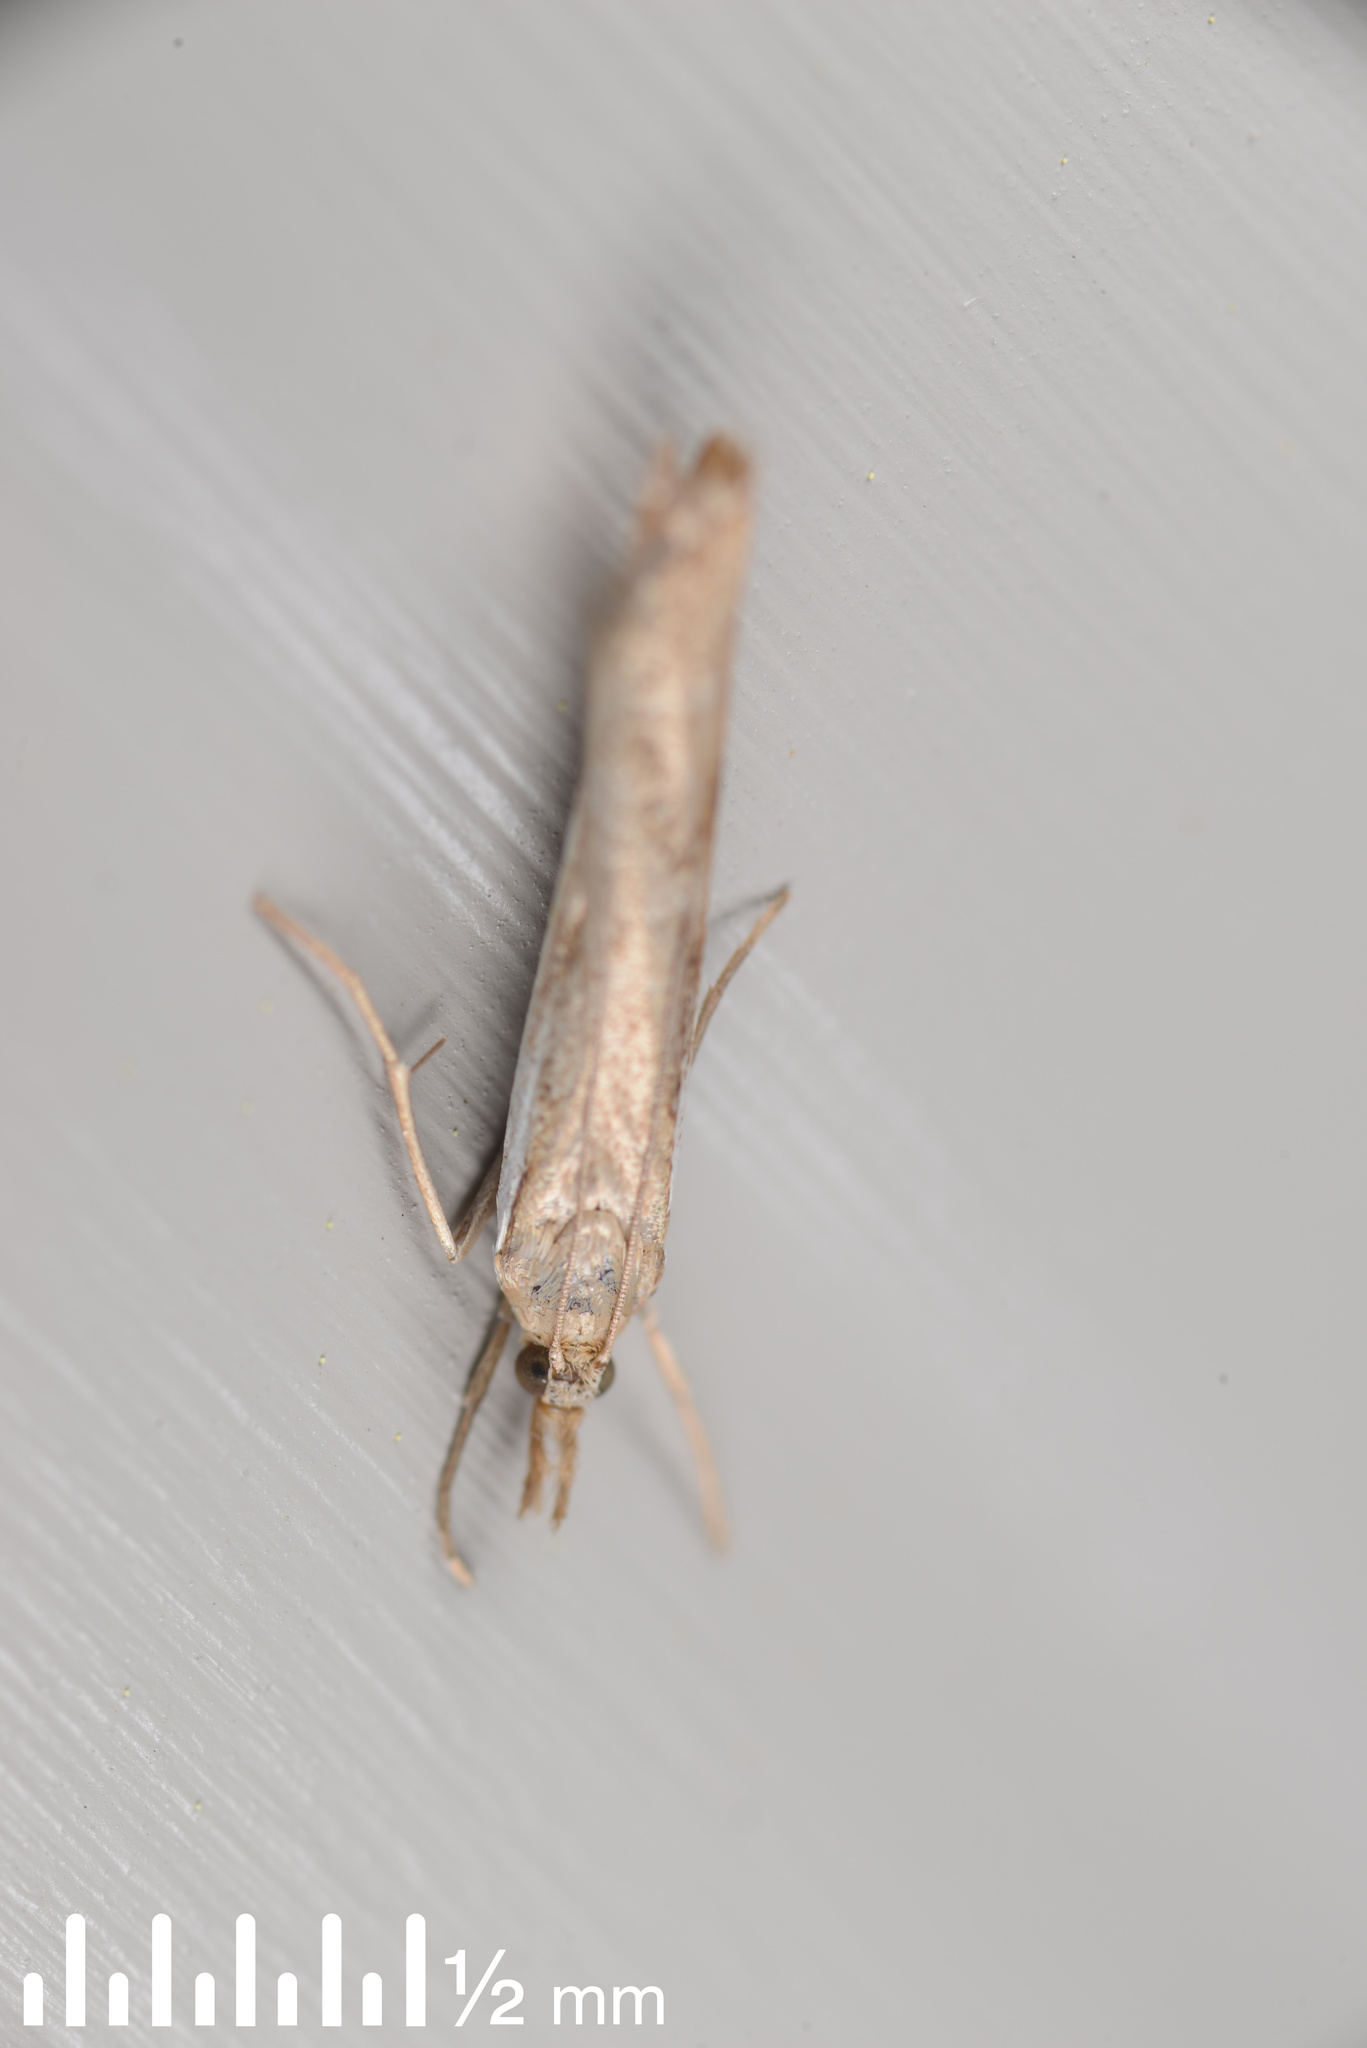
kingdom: Animalia
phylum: Arthropoda
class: Insecta
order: Lepidoptera
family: Crambidae
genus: Orocrambus
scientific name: Orocrambus flexuosellus
